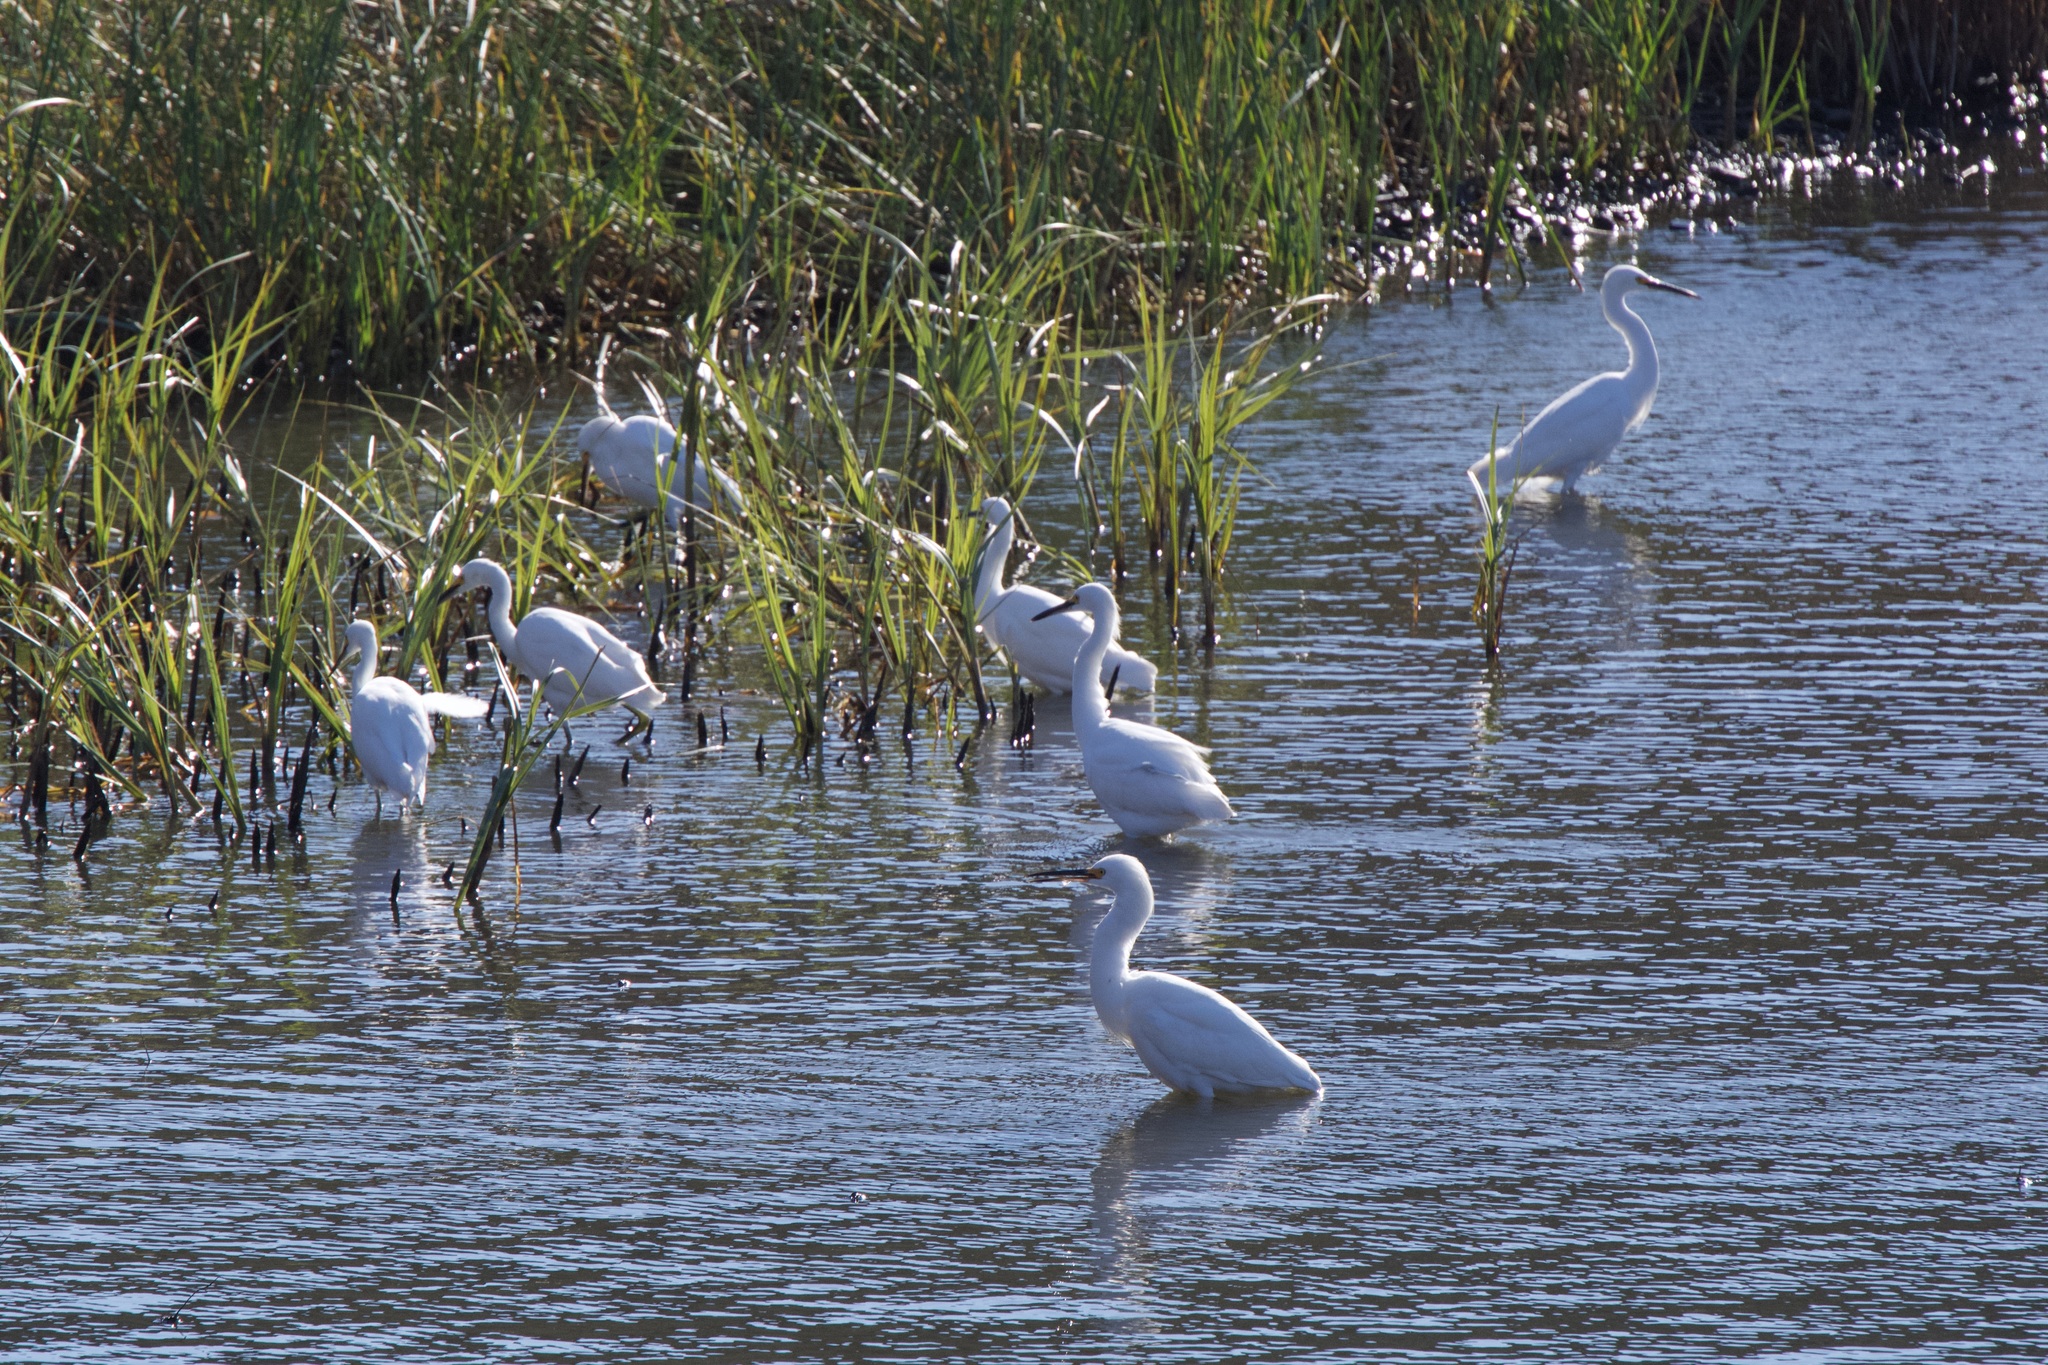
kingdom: Animalia
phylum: Chordata
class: Aves
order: Pelecaniformes
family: Ardeidae
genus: Egretta
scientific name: Egretta thula
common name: Snowy egret
